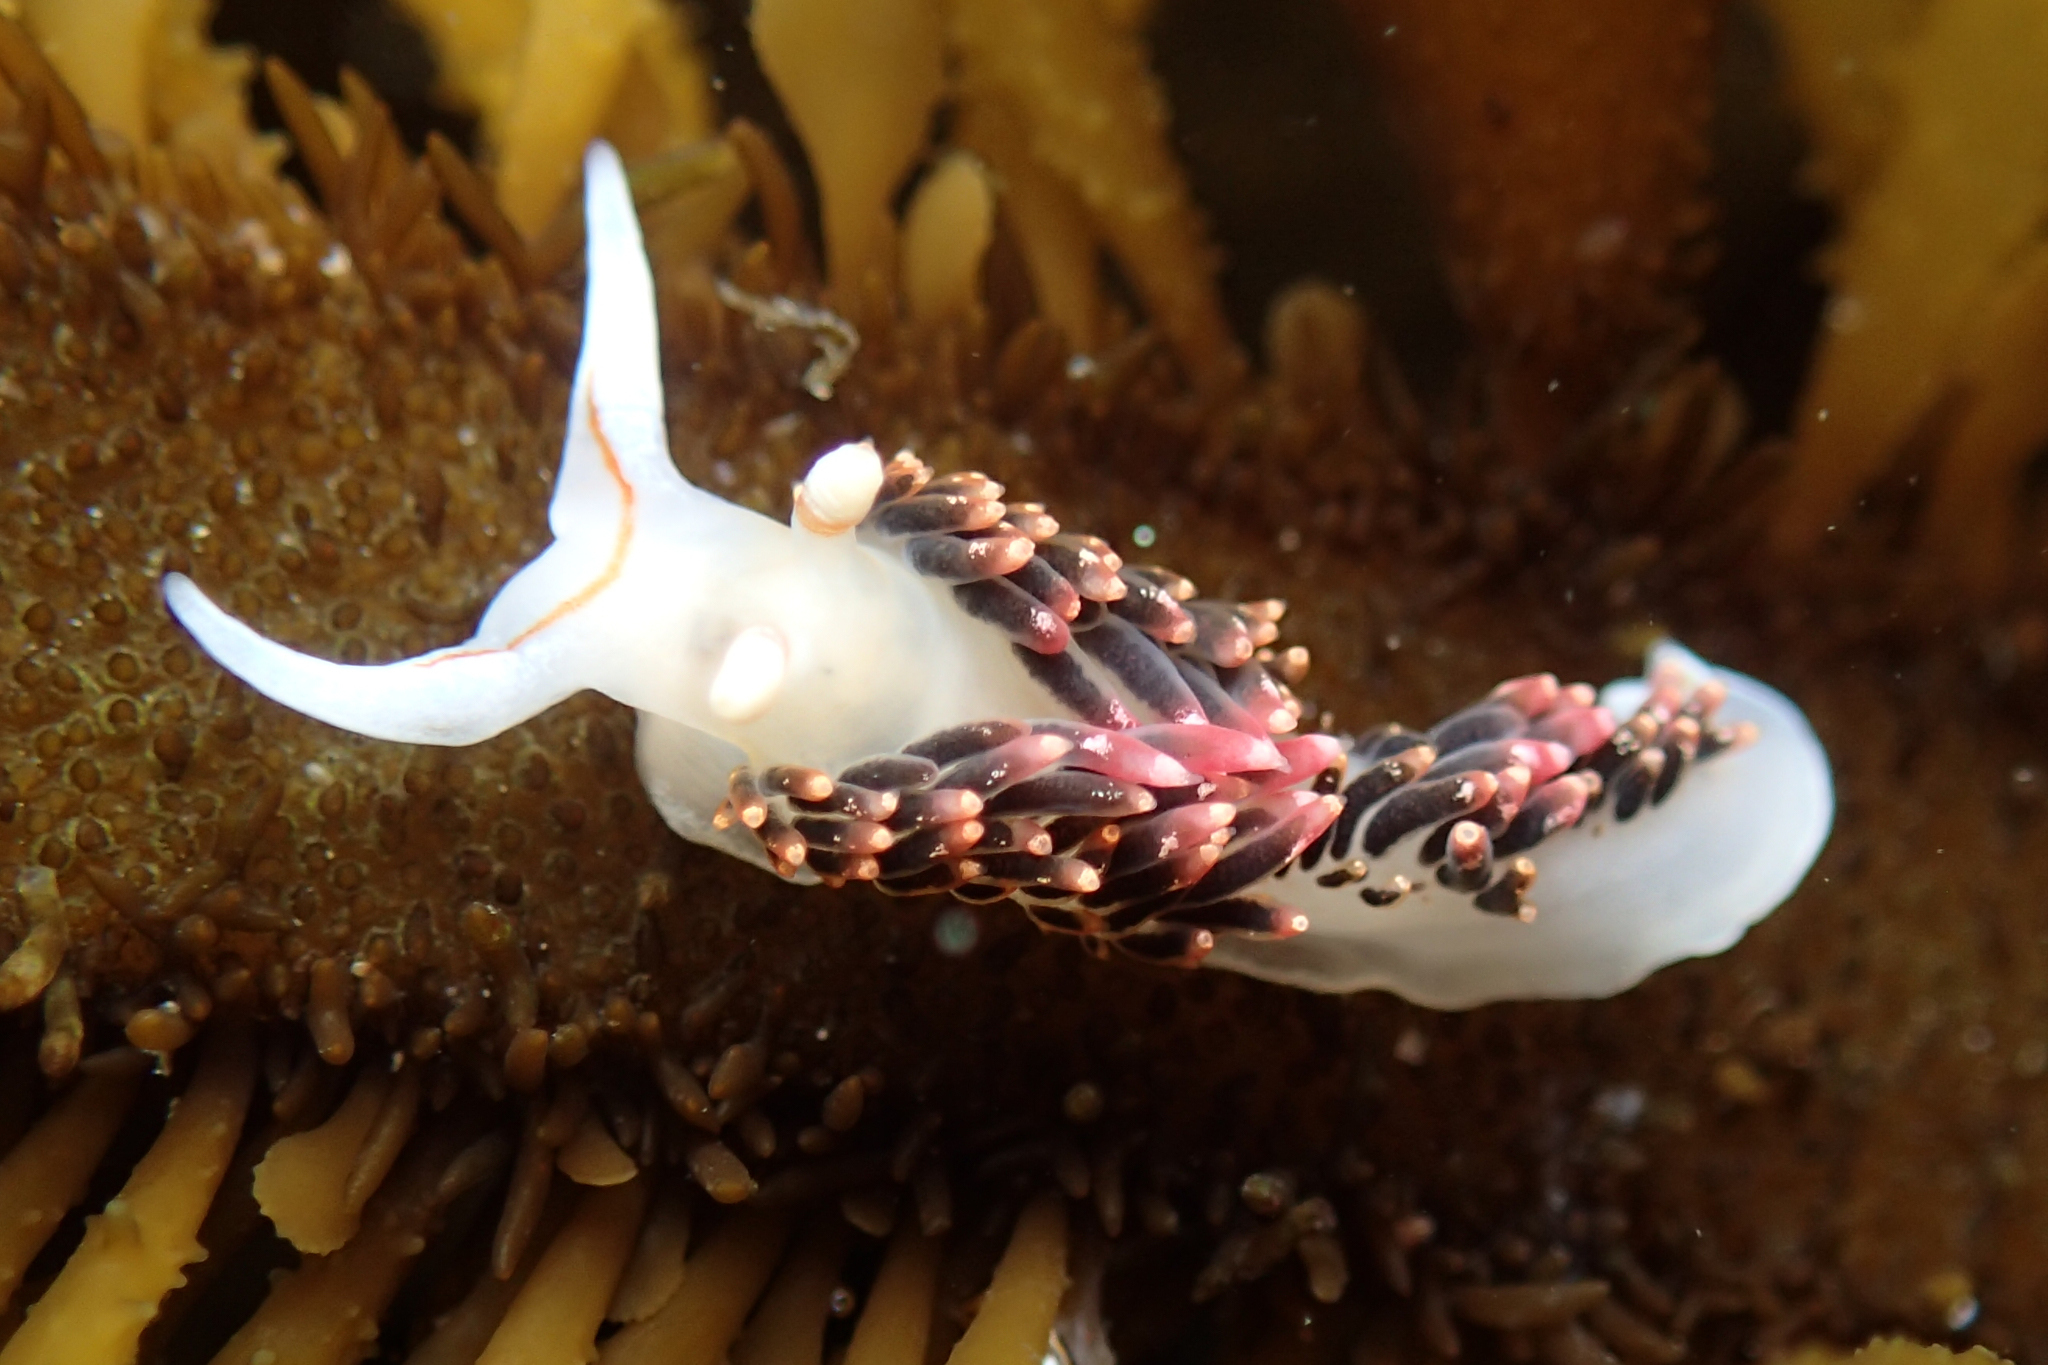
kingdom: Animalia
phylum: Mollusca
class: Gastropoda
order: Nudibranchia
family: Facelinidae
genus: Phidiana
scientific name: Phidiana hiltoni
